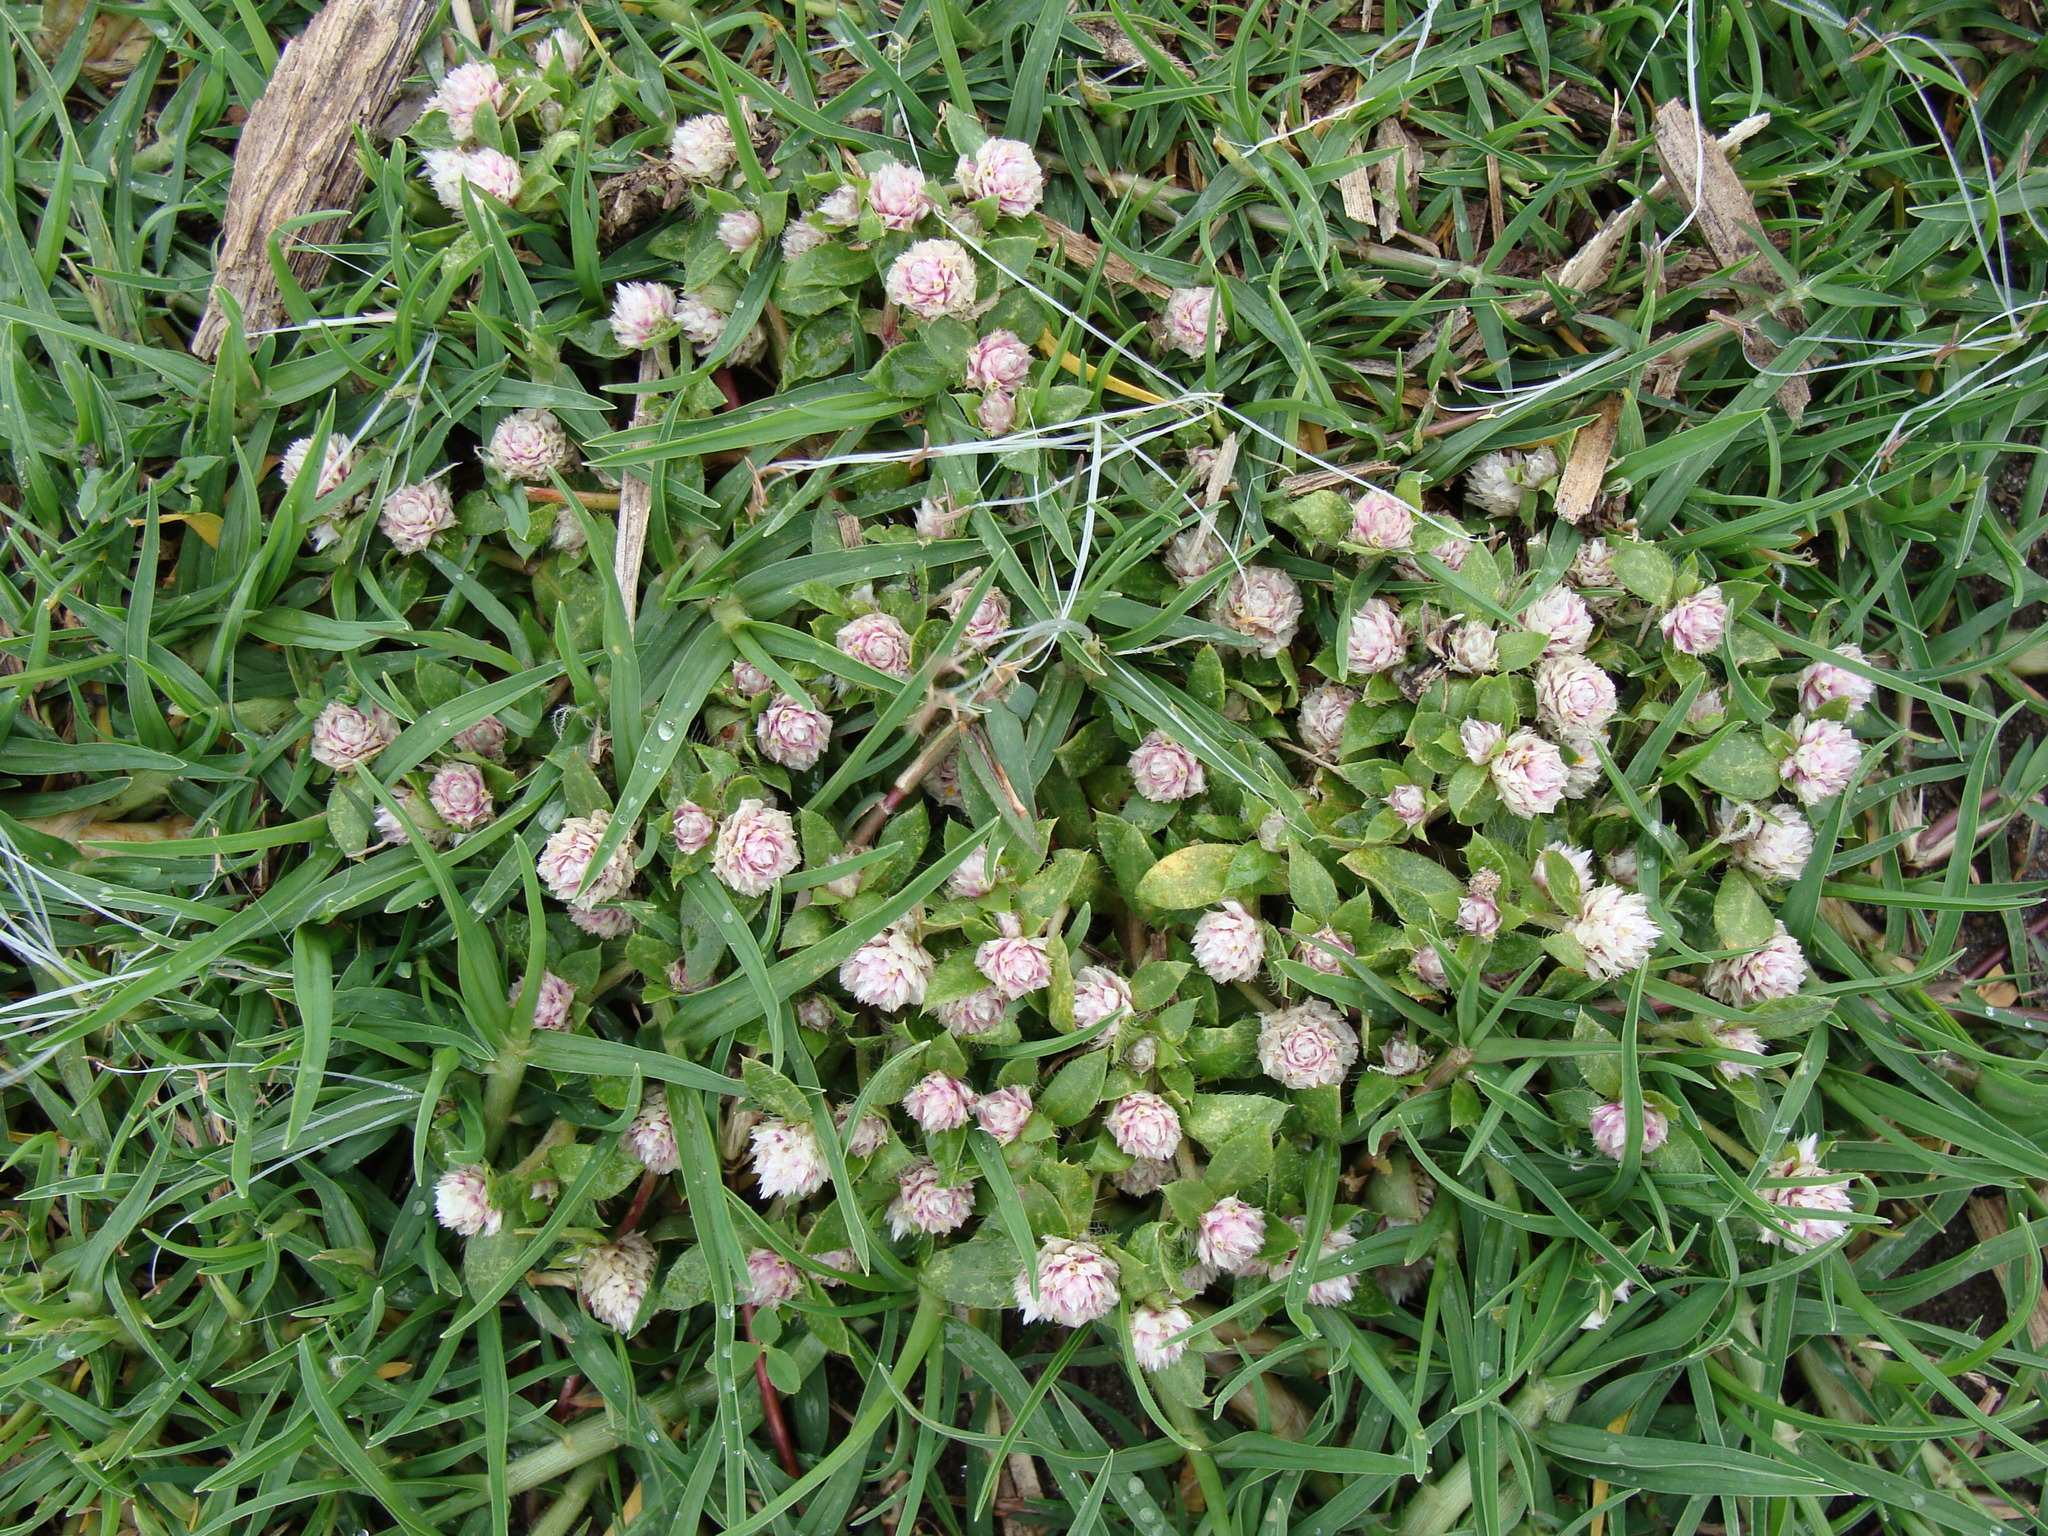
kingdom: Plantae
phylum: Tracheophyta
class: Magnoliopsida
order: Caryophyllales
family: Amaranthaceae
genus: Gomphrena
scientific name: Gomphrena serrata
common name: Arrasa con todo
